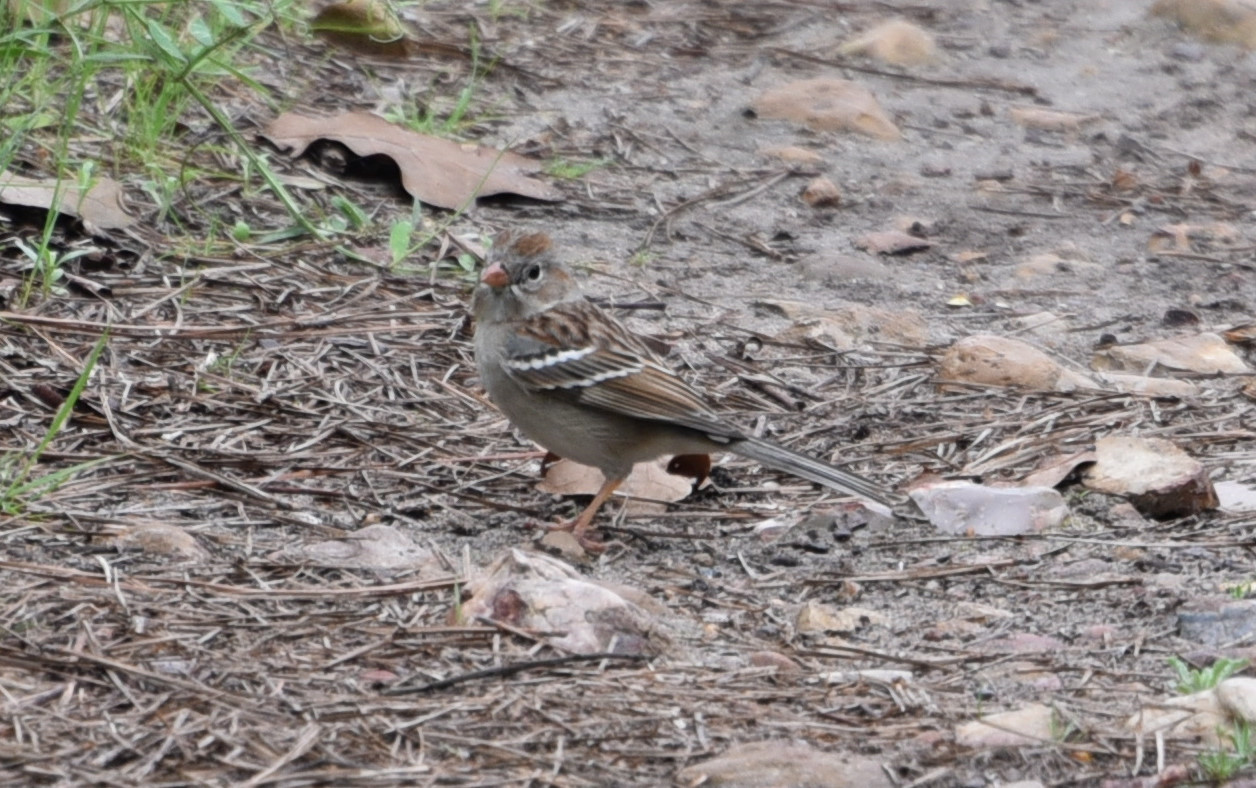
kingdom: Animalia
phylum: Chordata
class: Aves
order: Passeriformes
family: Passerellidae
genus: Spizella
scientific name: Spizella pusilla
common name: Field sparrow
